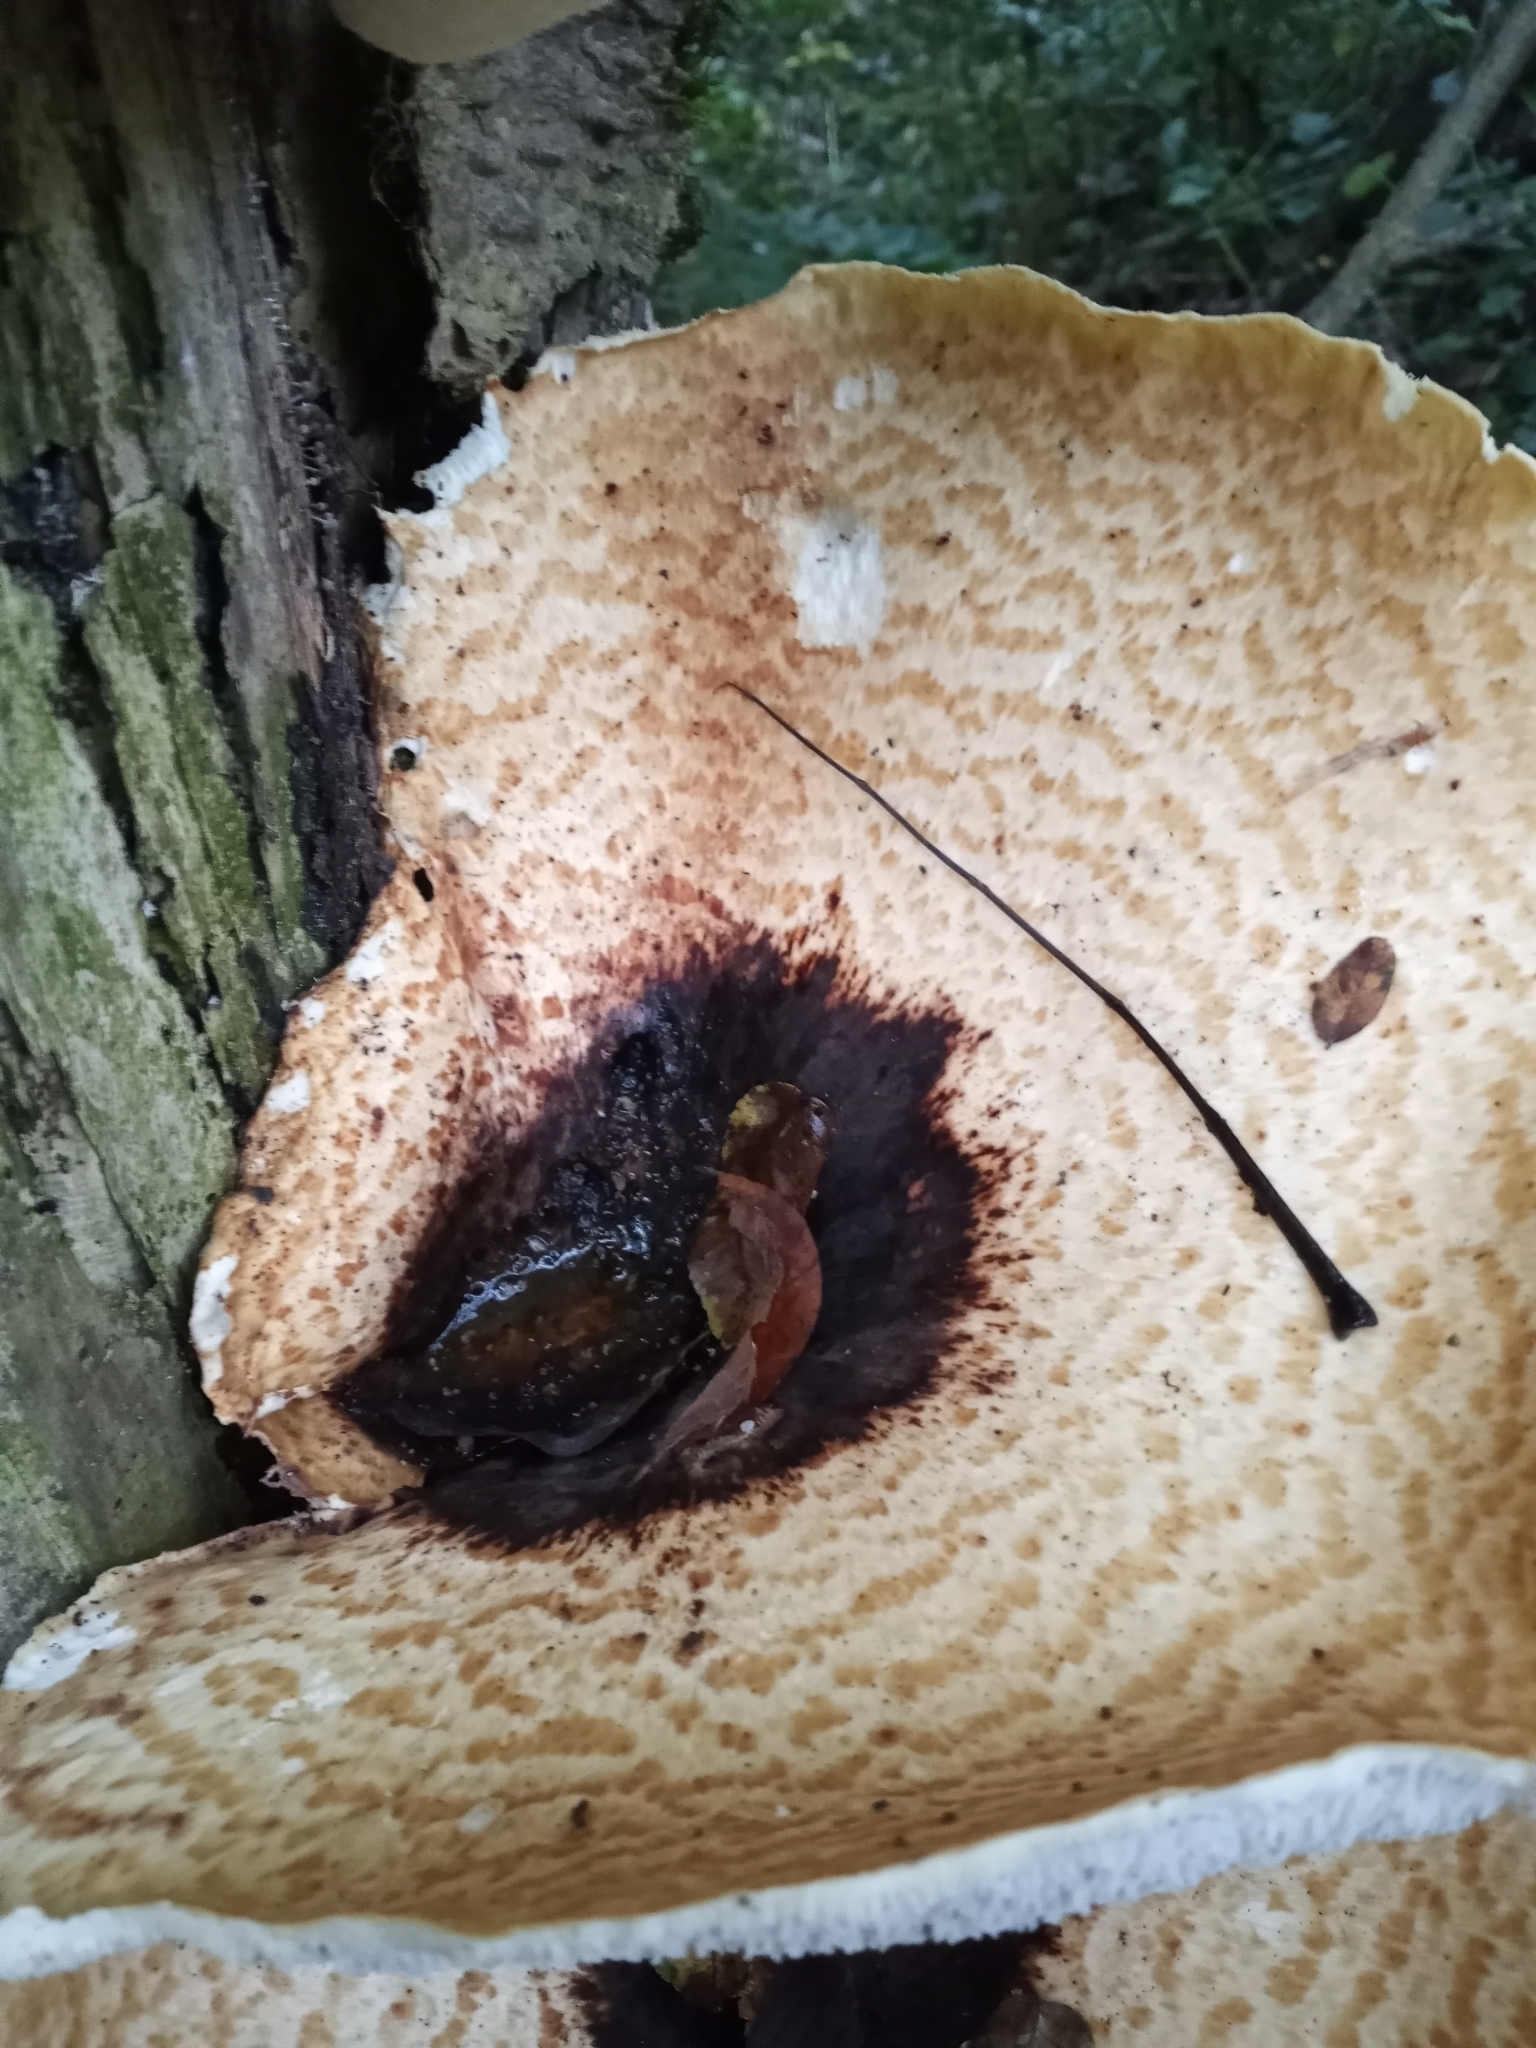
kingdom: Fungi
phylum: Basidiomycota
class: Agaricomycetes
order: Polyporales
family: Polyporaceae
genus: Cerioporus
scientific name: Cerioporus squamosus
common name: Dryad's saddle
